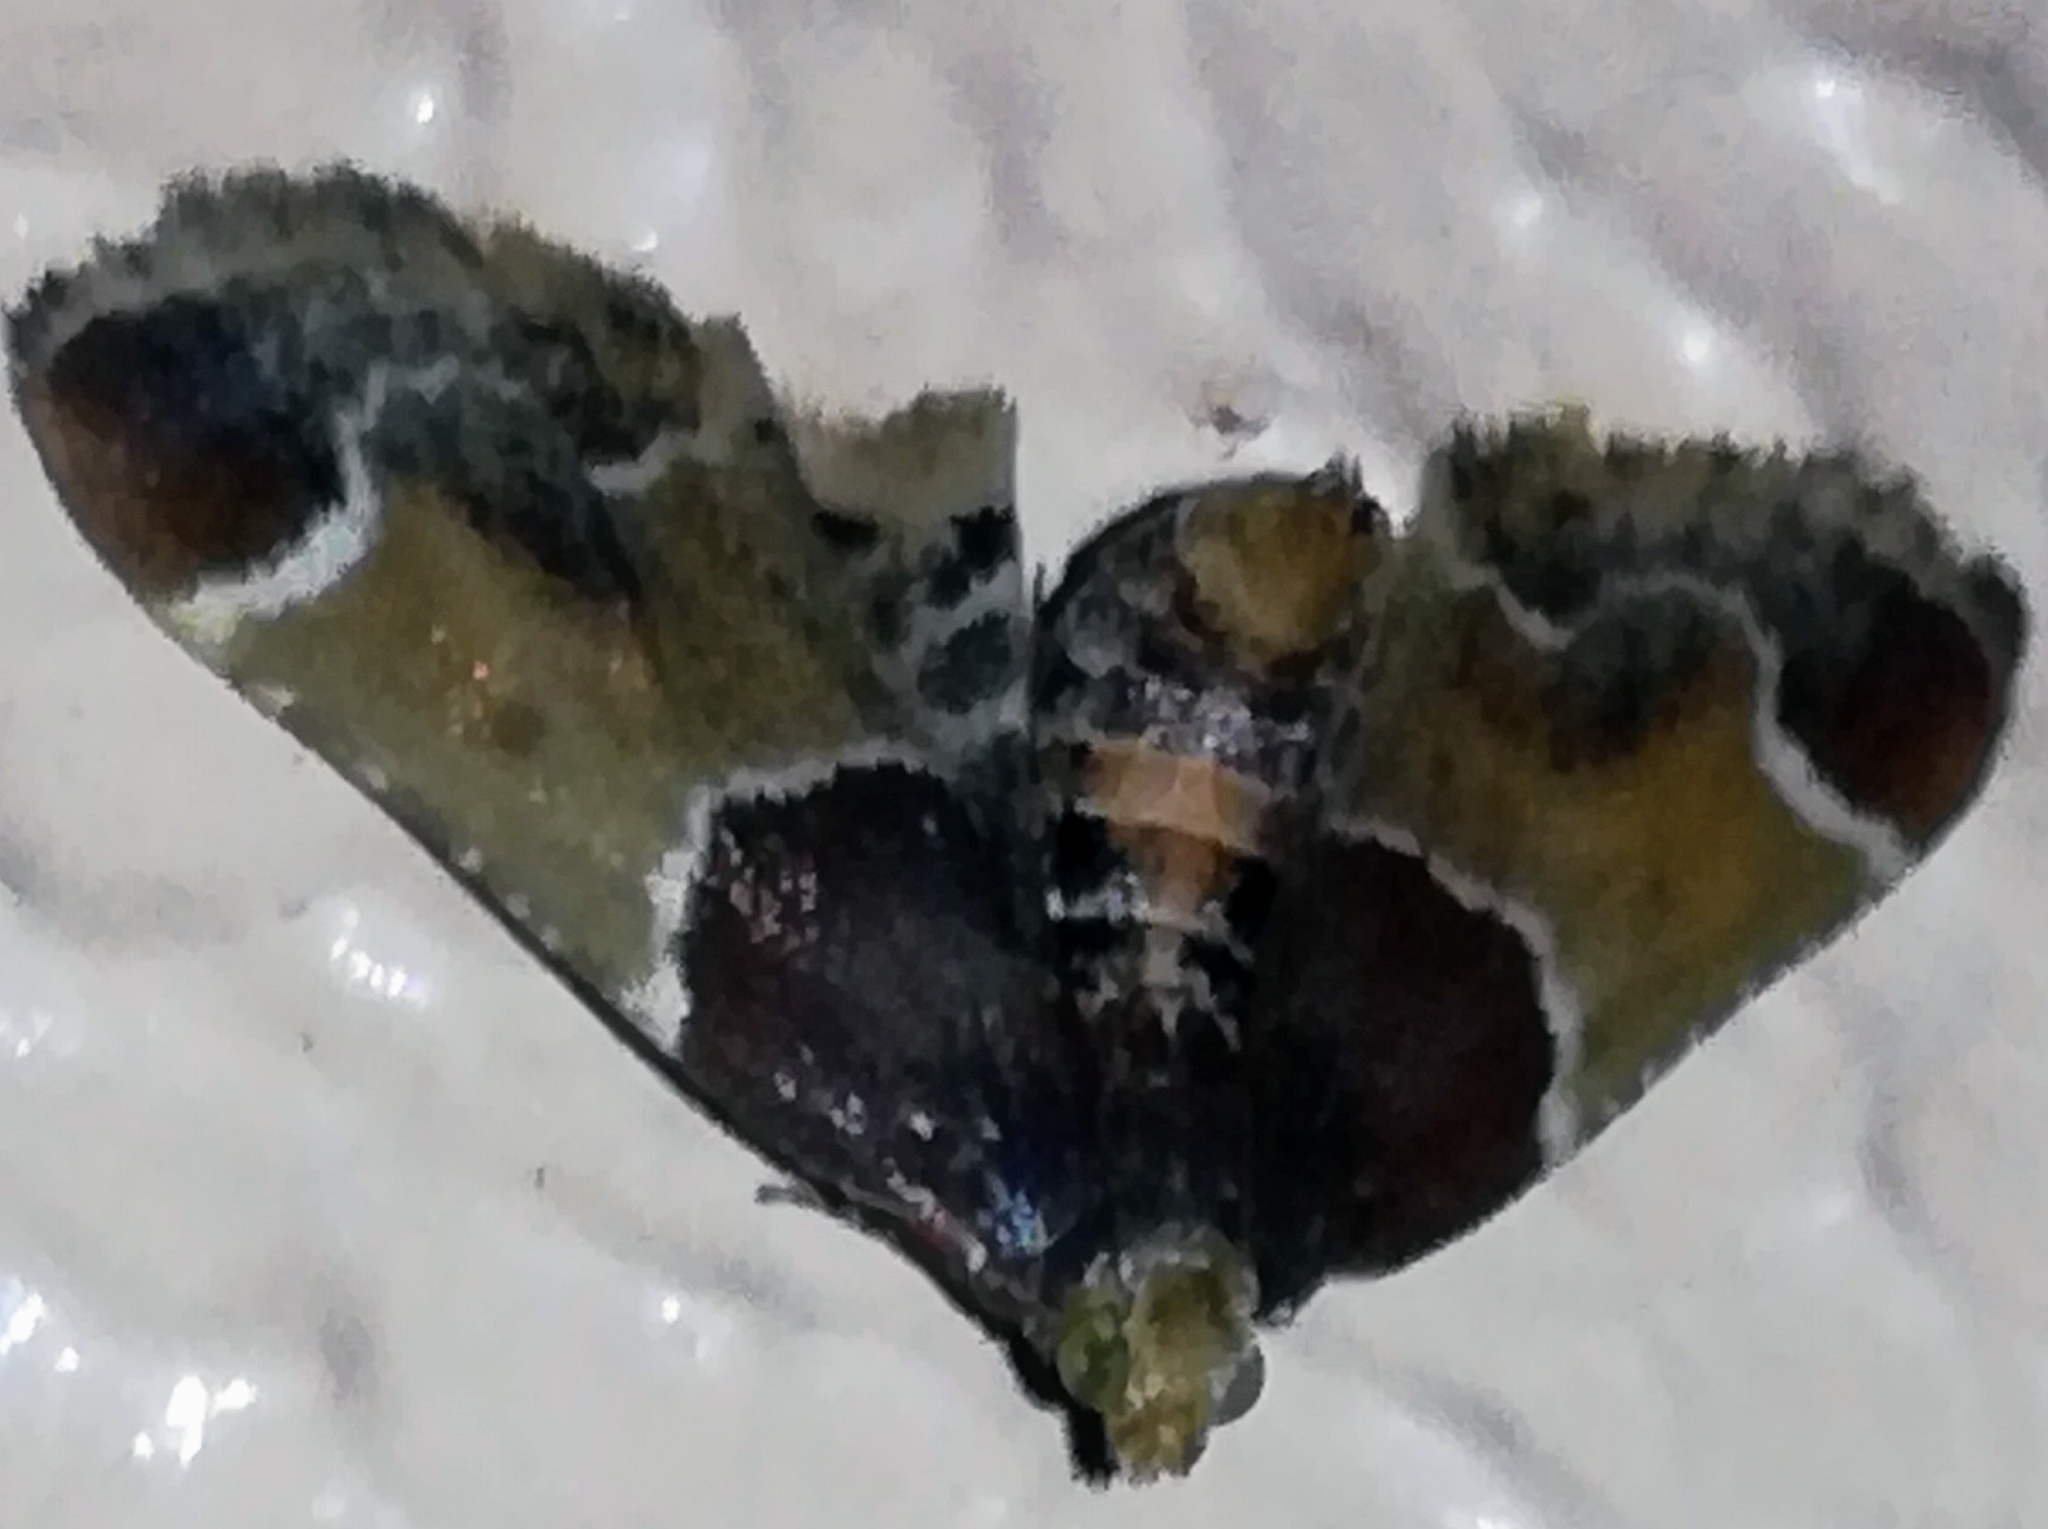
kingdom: Animalia
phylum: Arthropoda
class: Insecta
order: Lepidoptera
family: Pyralidae
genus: Pyralis
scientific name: Pyralis farinalis
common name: Meal moth
